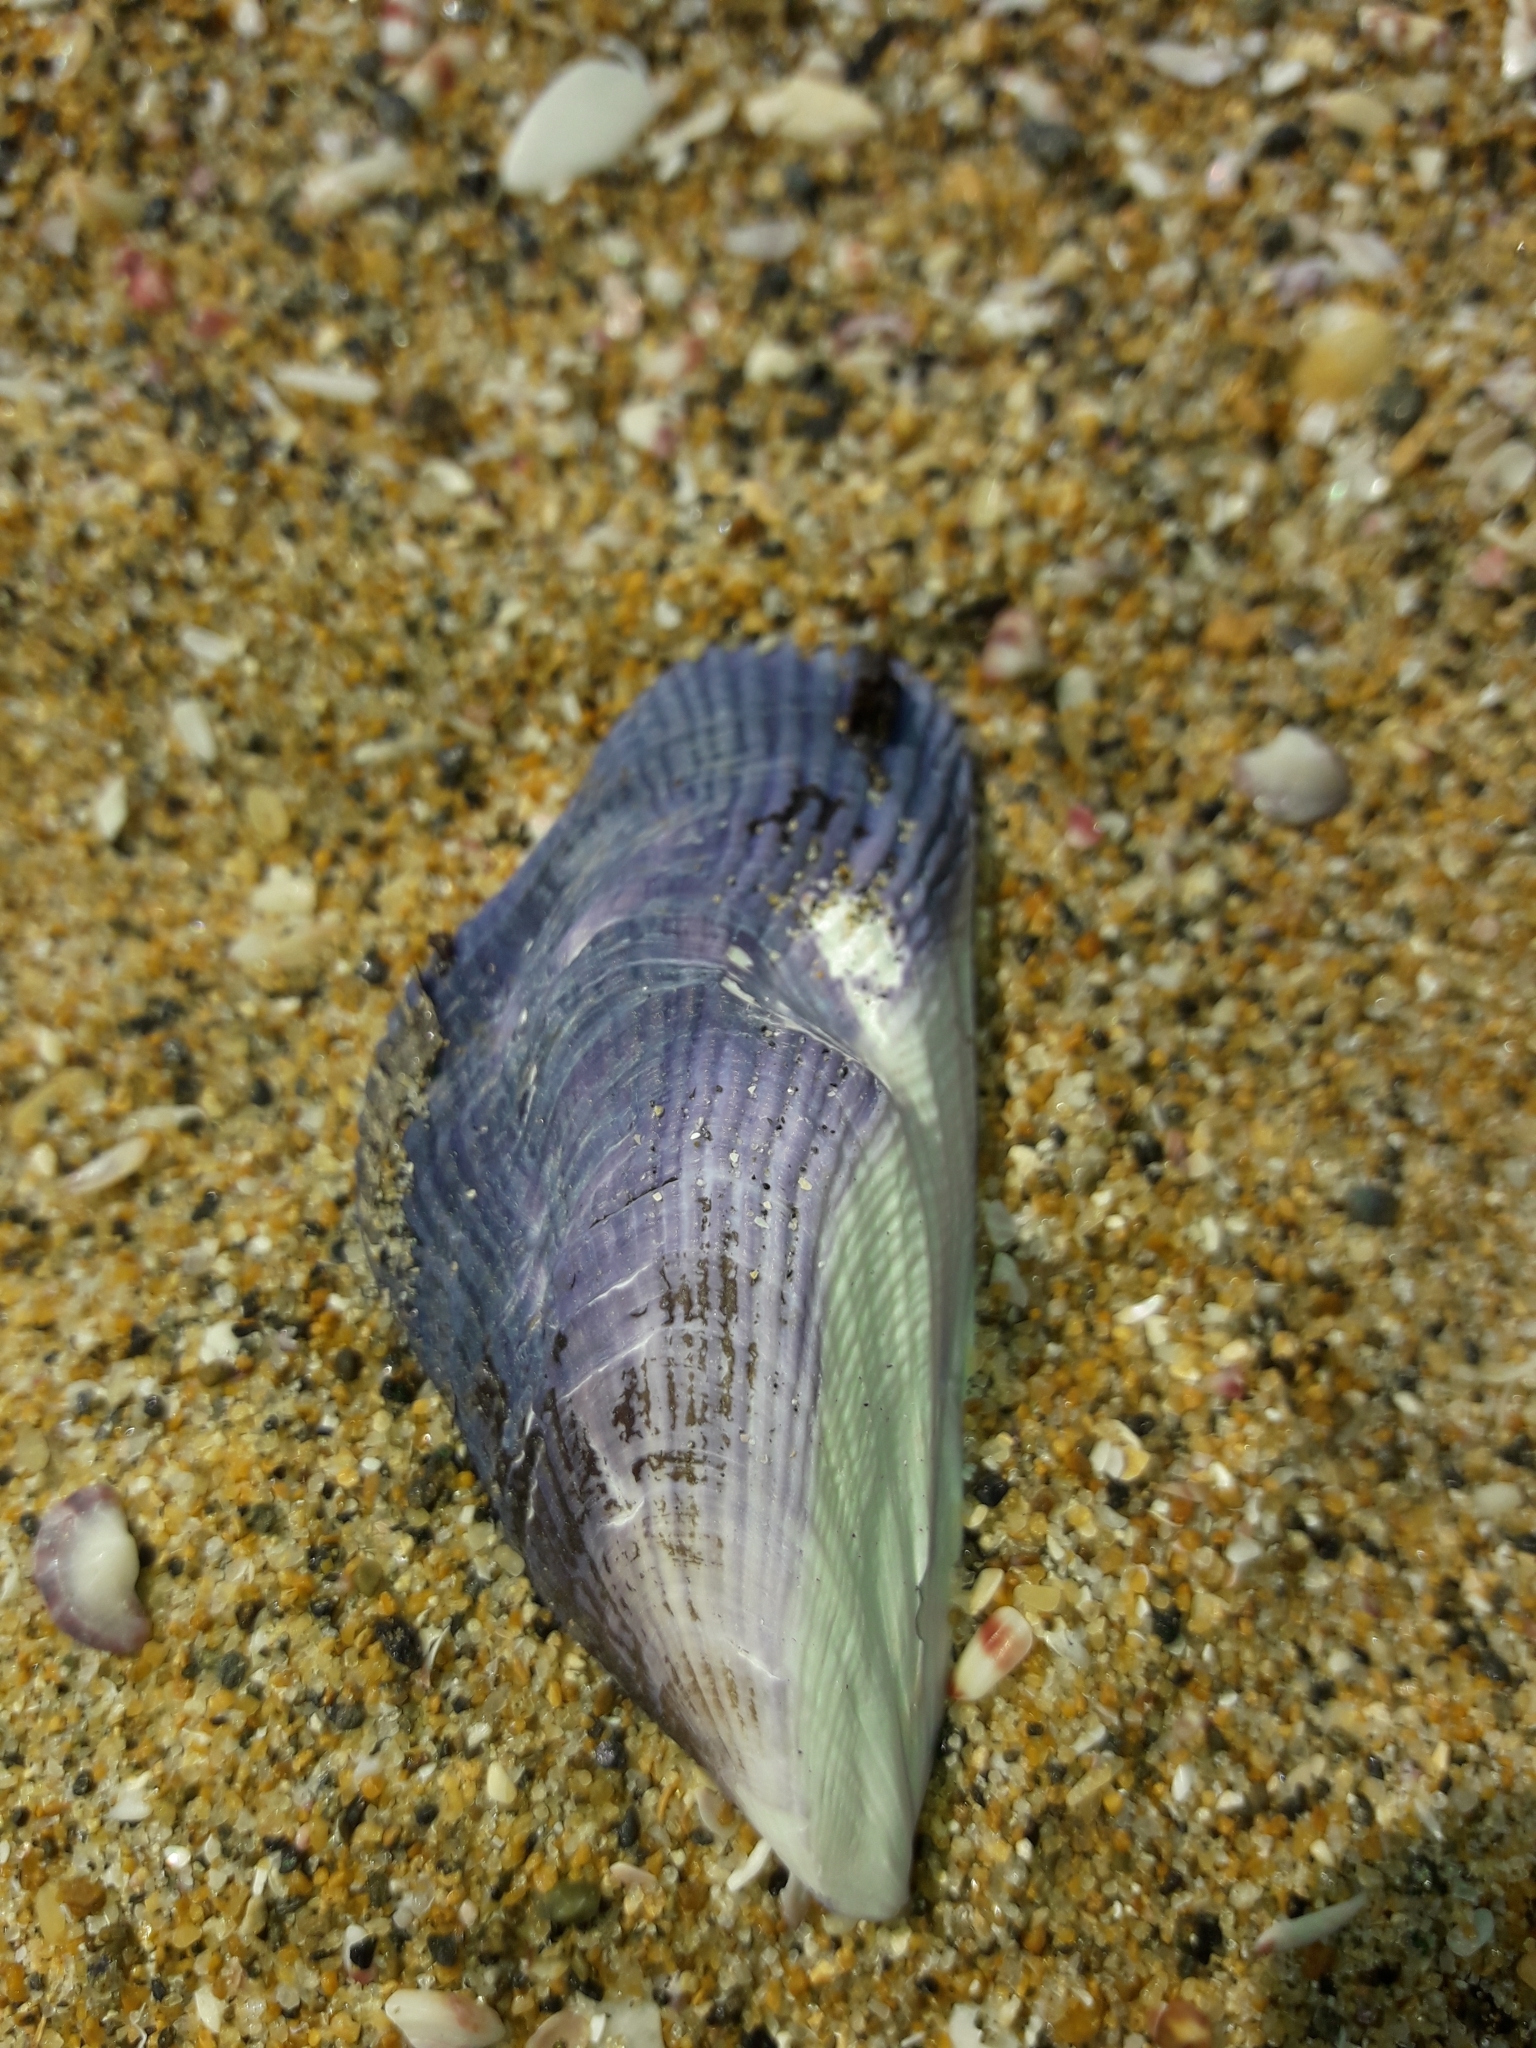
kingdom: Animalia
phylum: Mollusca
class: Bivalvia
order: Mytilida
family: Mytilidae
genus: Aulacomya
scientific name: Aulacomya maoriana
